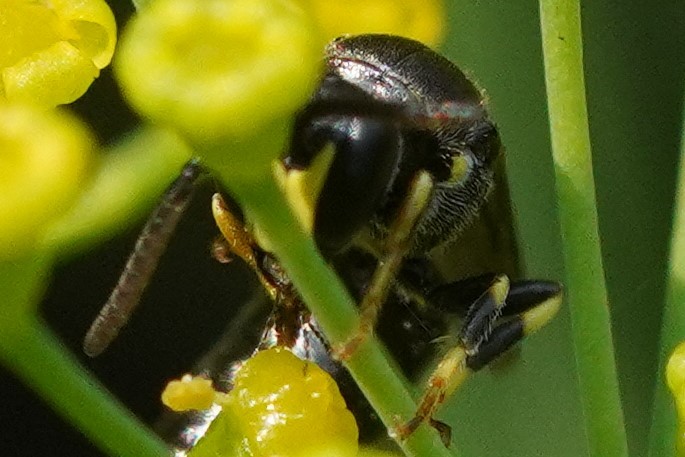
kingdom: Animalia
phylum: Arthropoda
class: Insecta
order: Hymenoptera
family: Colletidae
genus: Hylaeus
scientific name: Hylaeus modestus
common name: Yellow-faced bee
